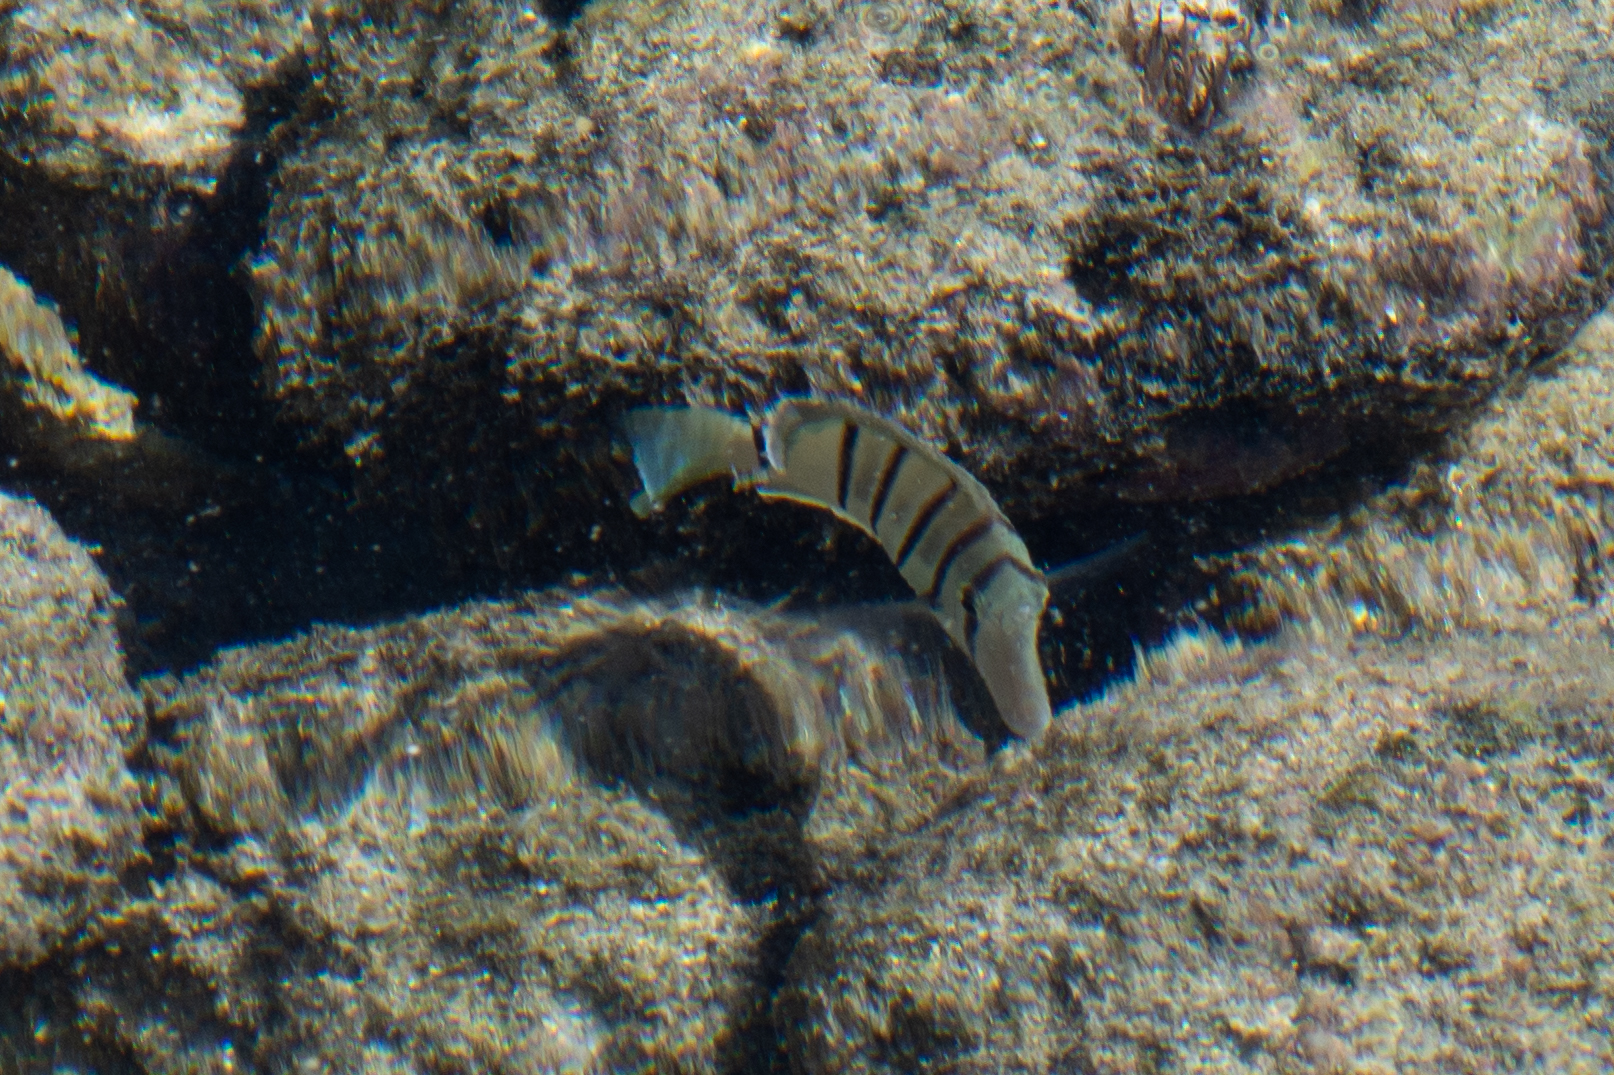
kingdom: Animalia
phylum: Chordata
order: Perciformes
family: Acanthuridae
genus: Acanthurus
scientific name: Acanthurus triostegus
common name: Convict surgeonfish
